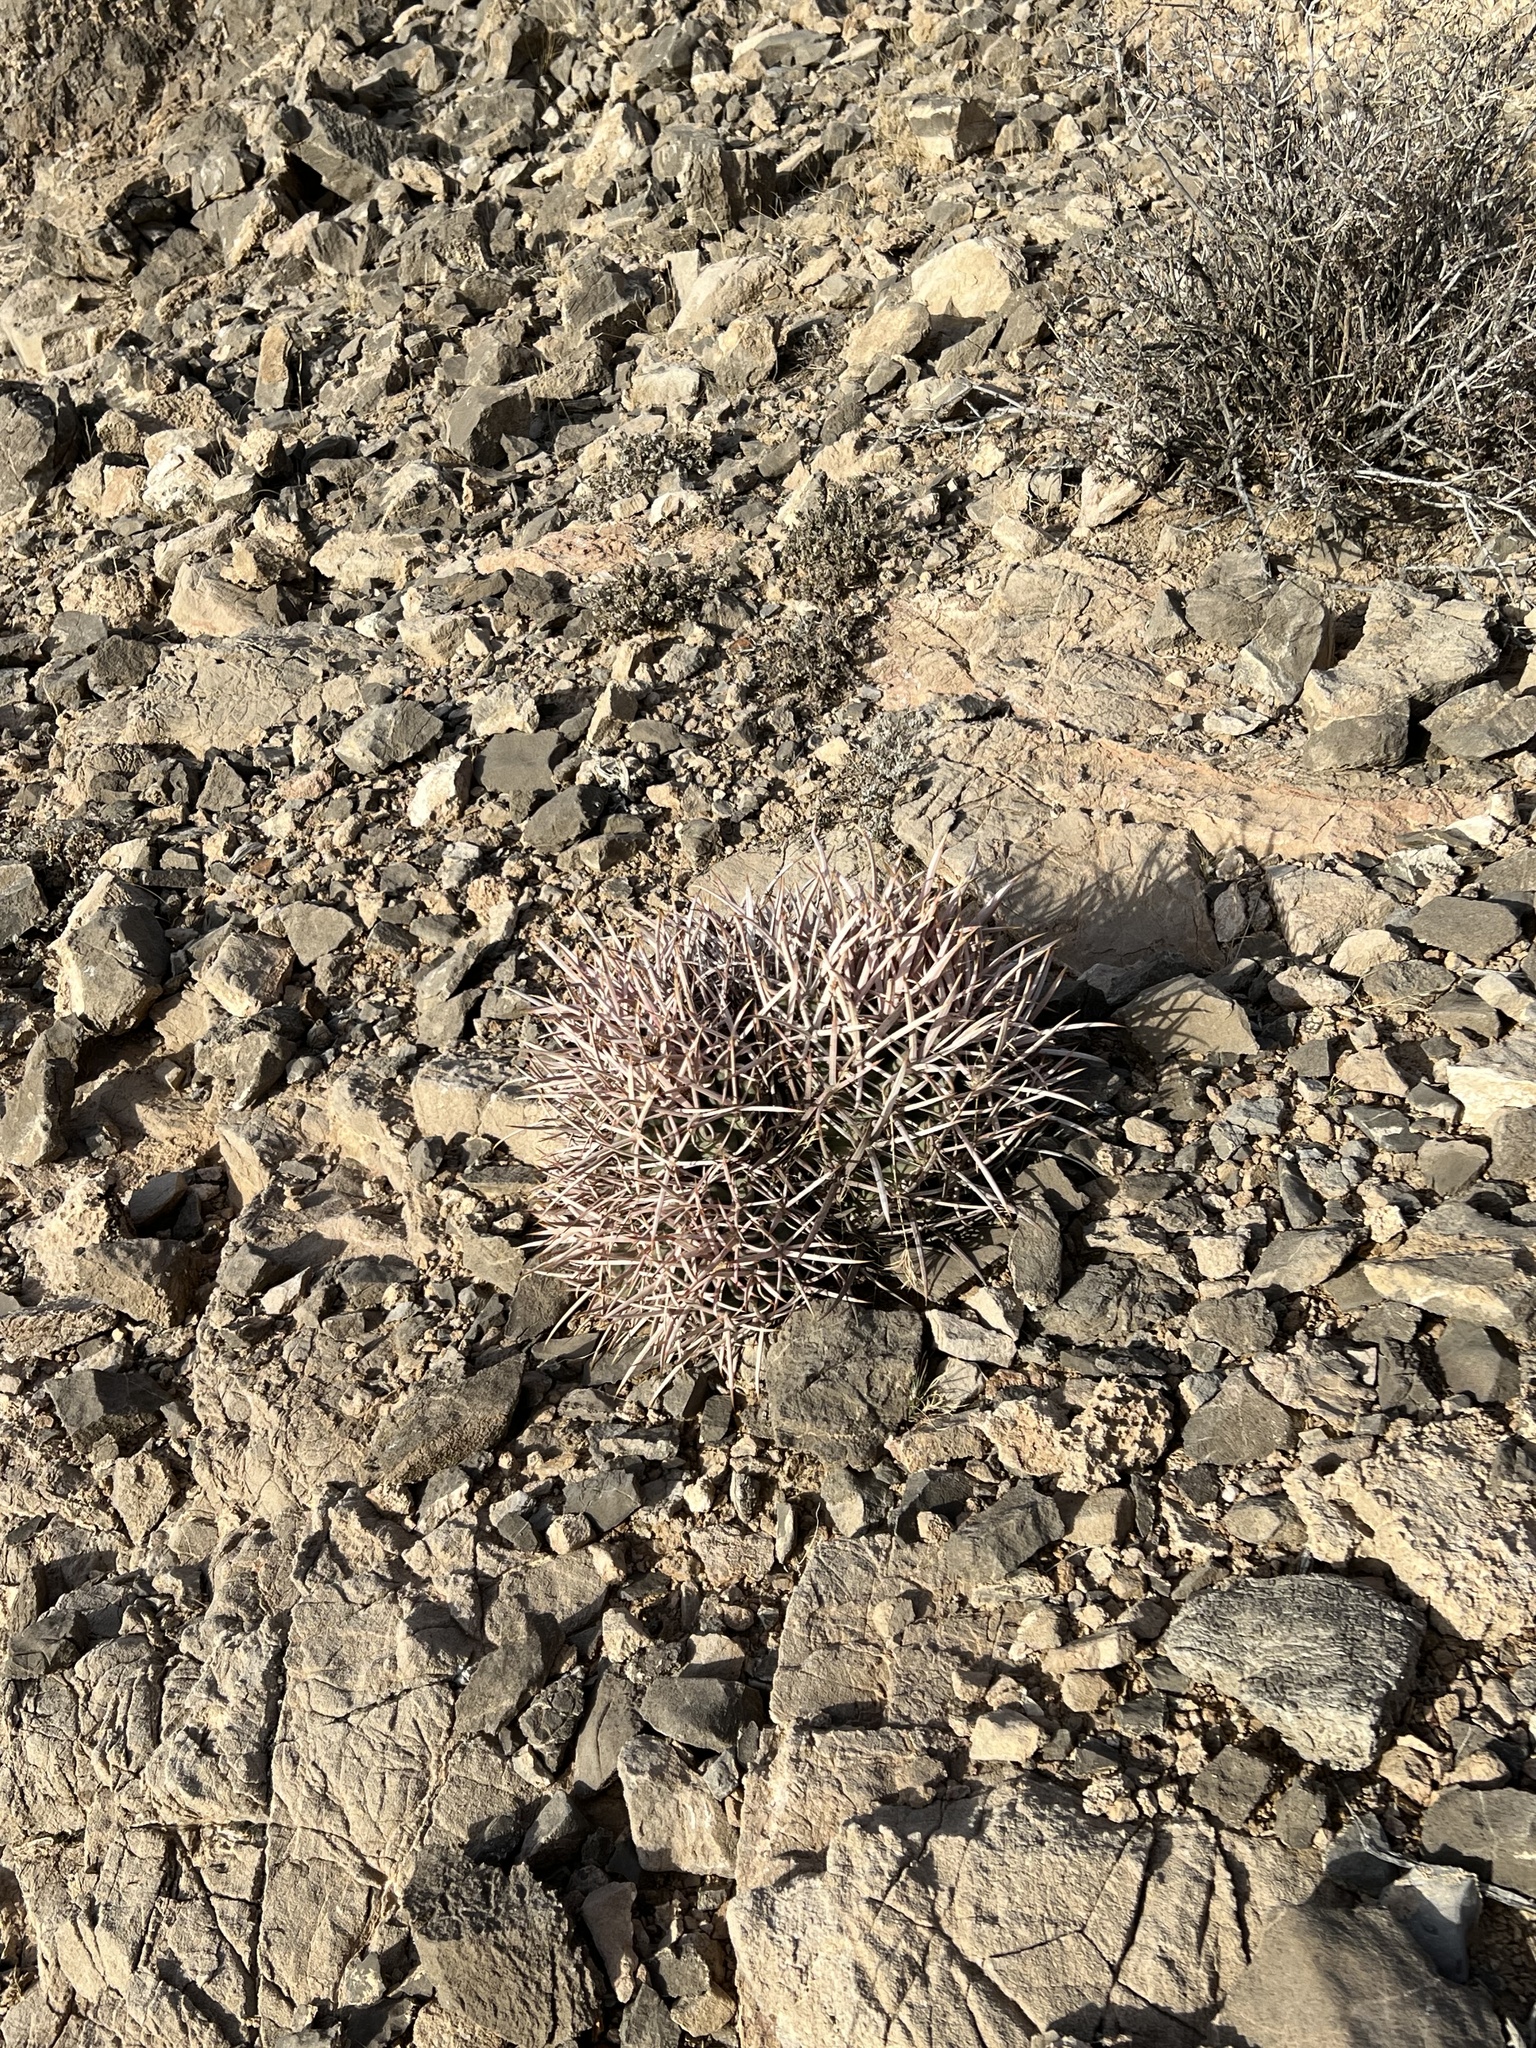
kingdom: Plantae
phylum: Tracheophyta
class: Magnoliopsida
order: Caryophyllales
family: Cactaceae
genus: Echinocactus
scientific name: Echinocactus polycephalus
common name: Cottontop cactus
